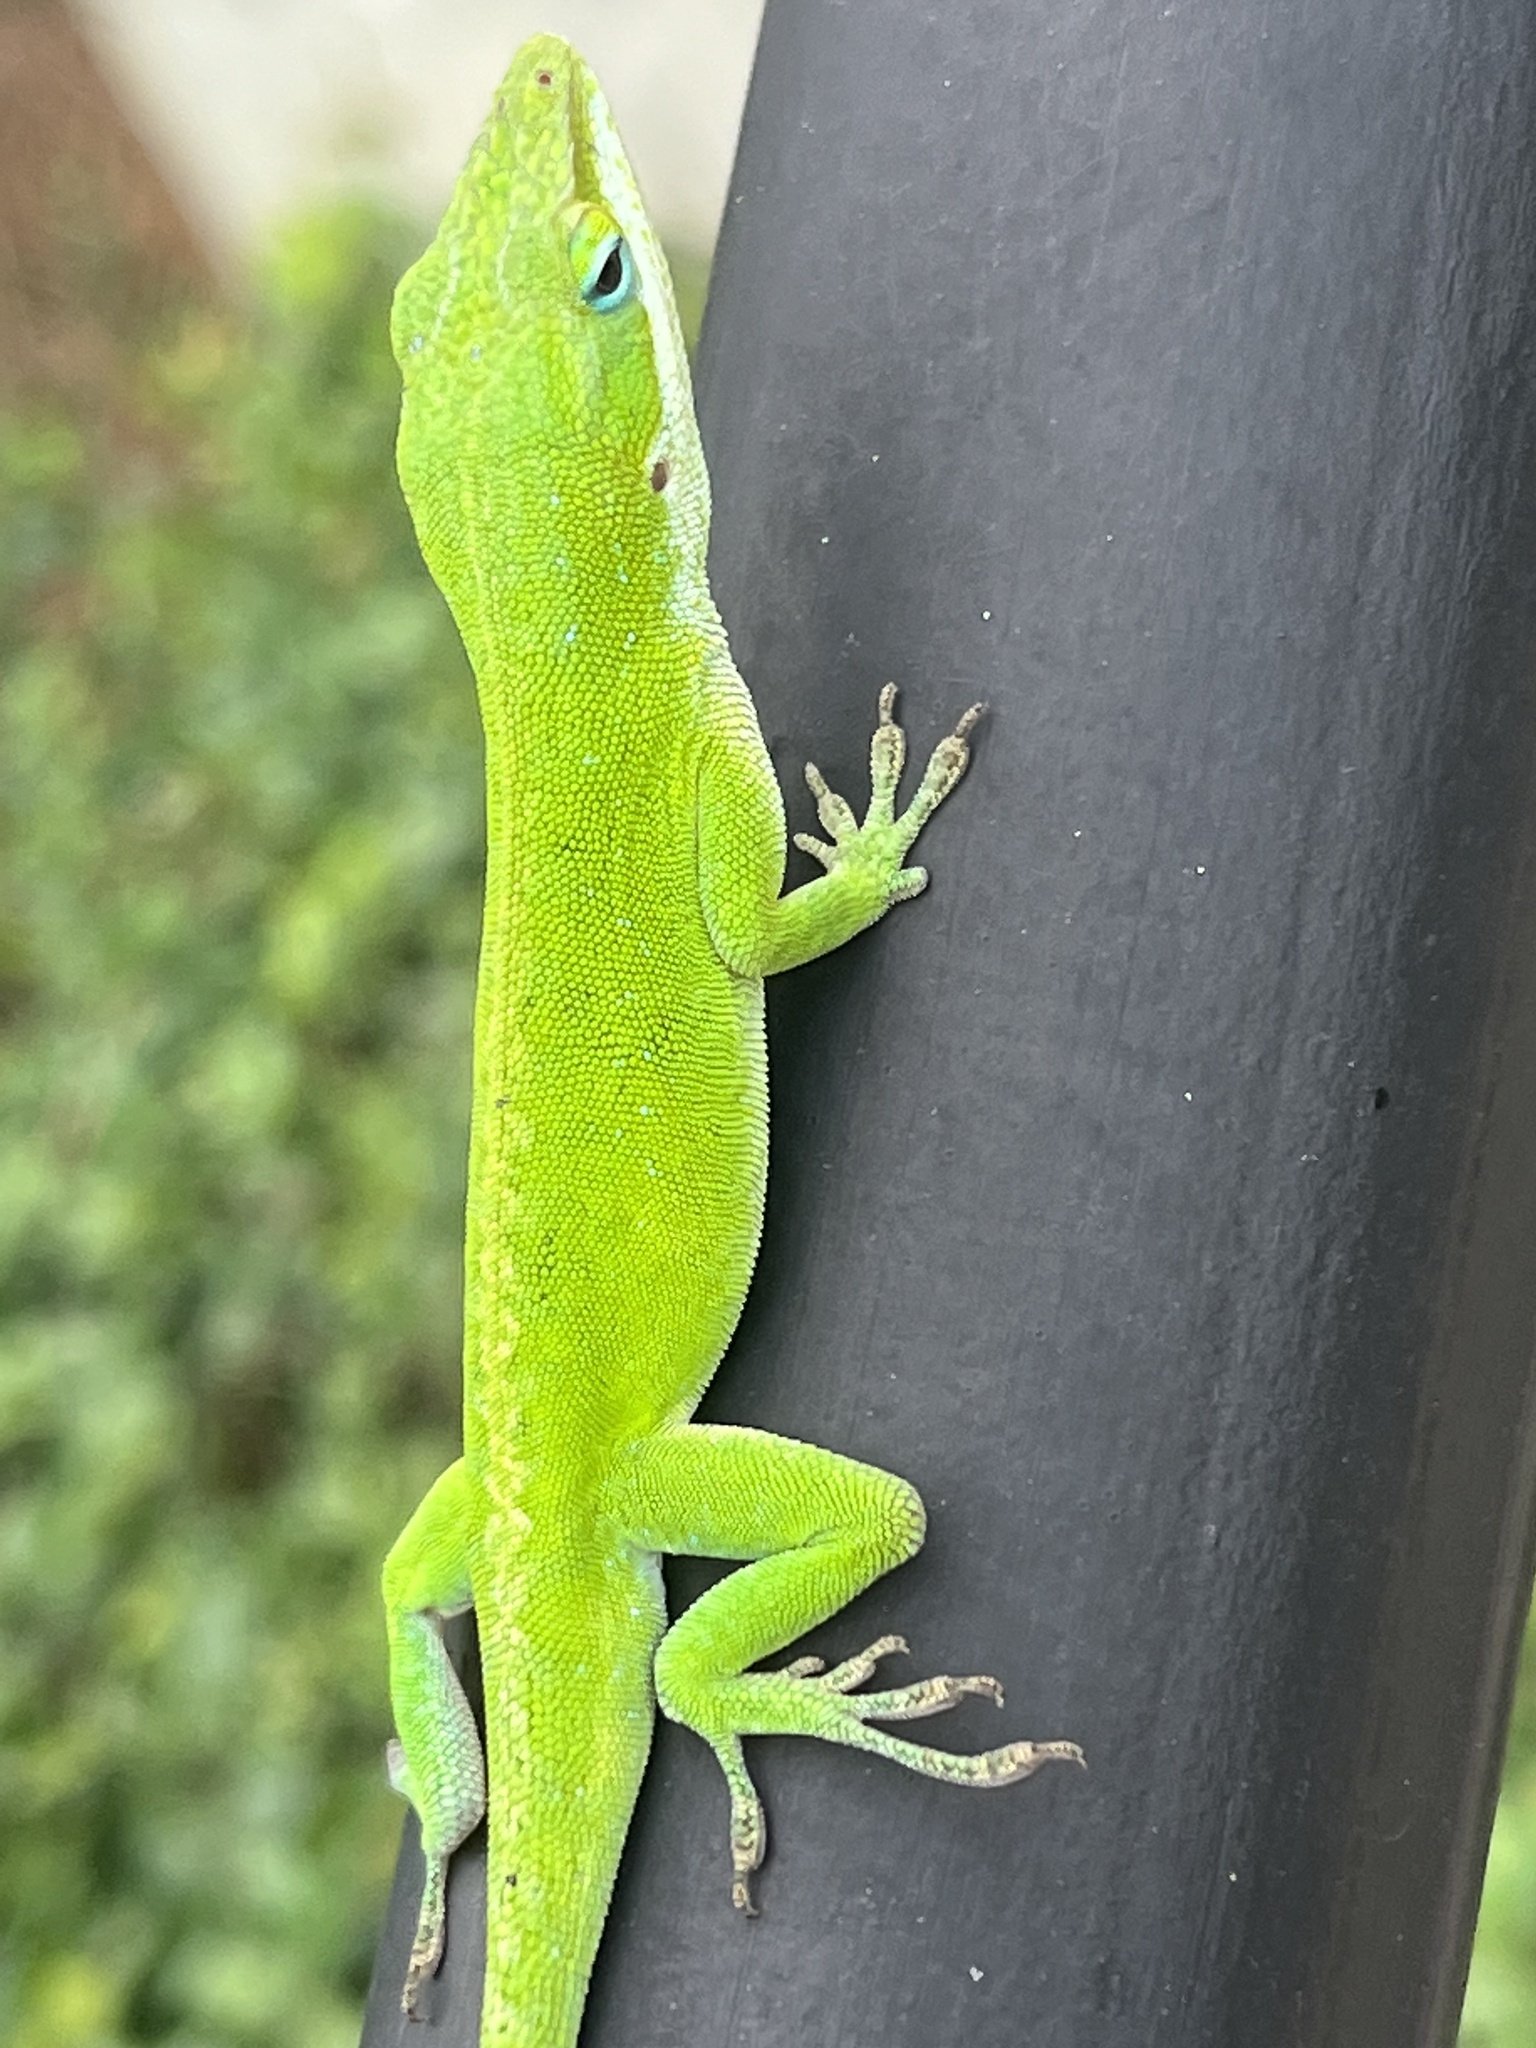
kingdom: Animalia
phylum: Chordata
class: Squamata
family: Dactyloidae
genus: Anolis
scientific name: Anolis carolinensis
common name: Green anole
